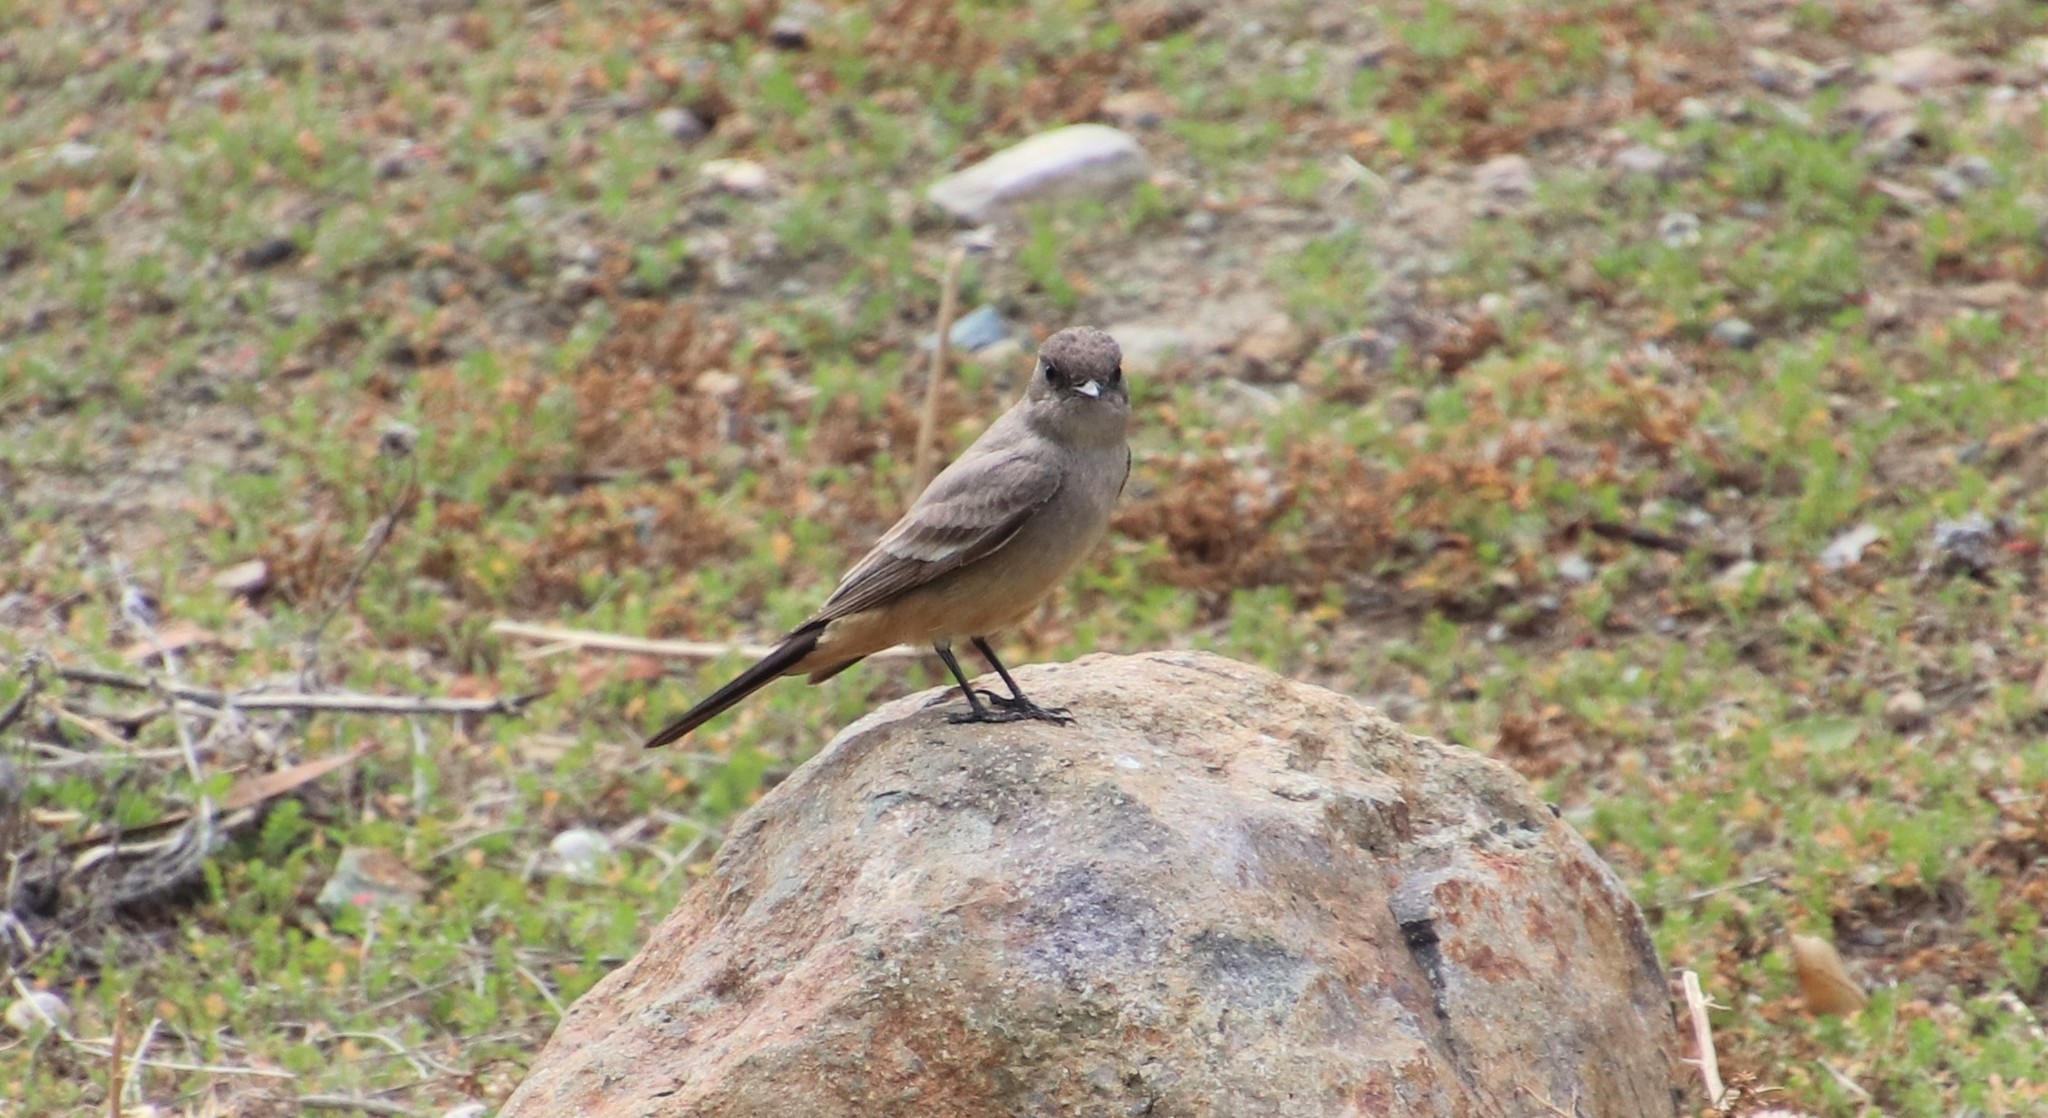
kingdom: Animalia
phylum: Chordata
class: Aves
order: Passeriformes
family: Tyrannidae
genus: Sayornis
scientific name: Sayornis saya
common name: Say's phoebe
